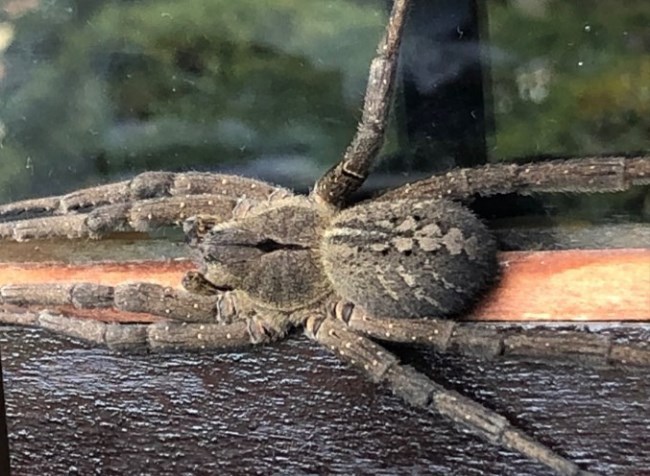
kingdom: Animalia
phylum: Arthropoda
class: Arachnida
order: Araneae
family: Ctenidae
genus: Phoneutria
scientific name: Phoneutria nigriventer
